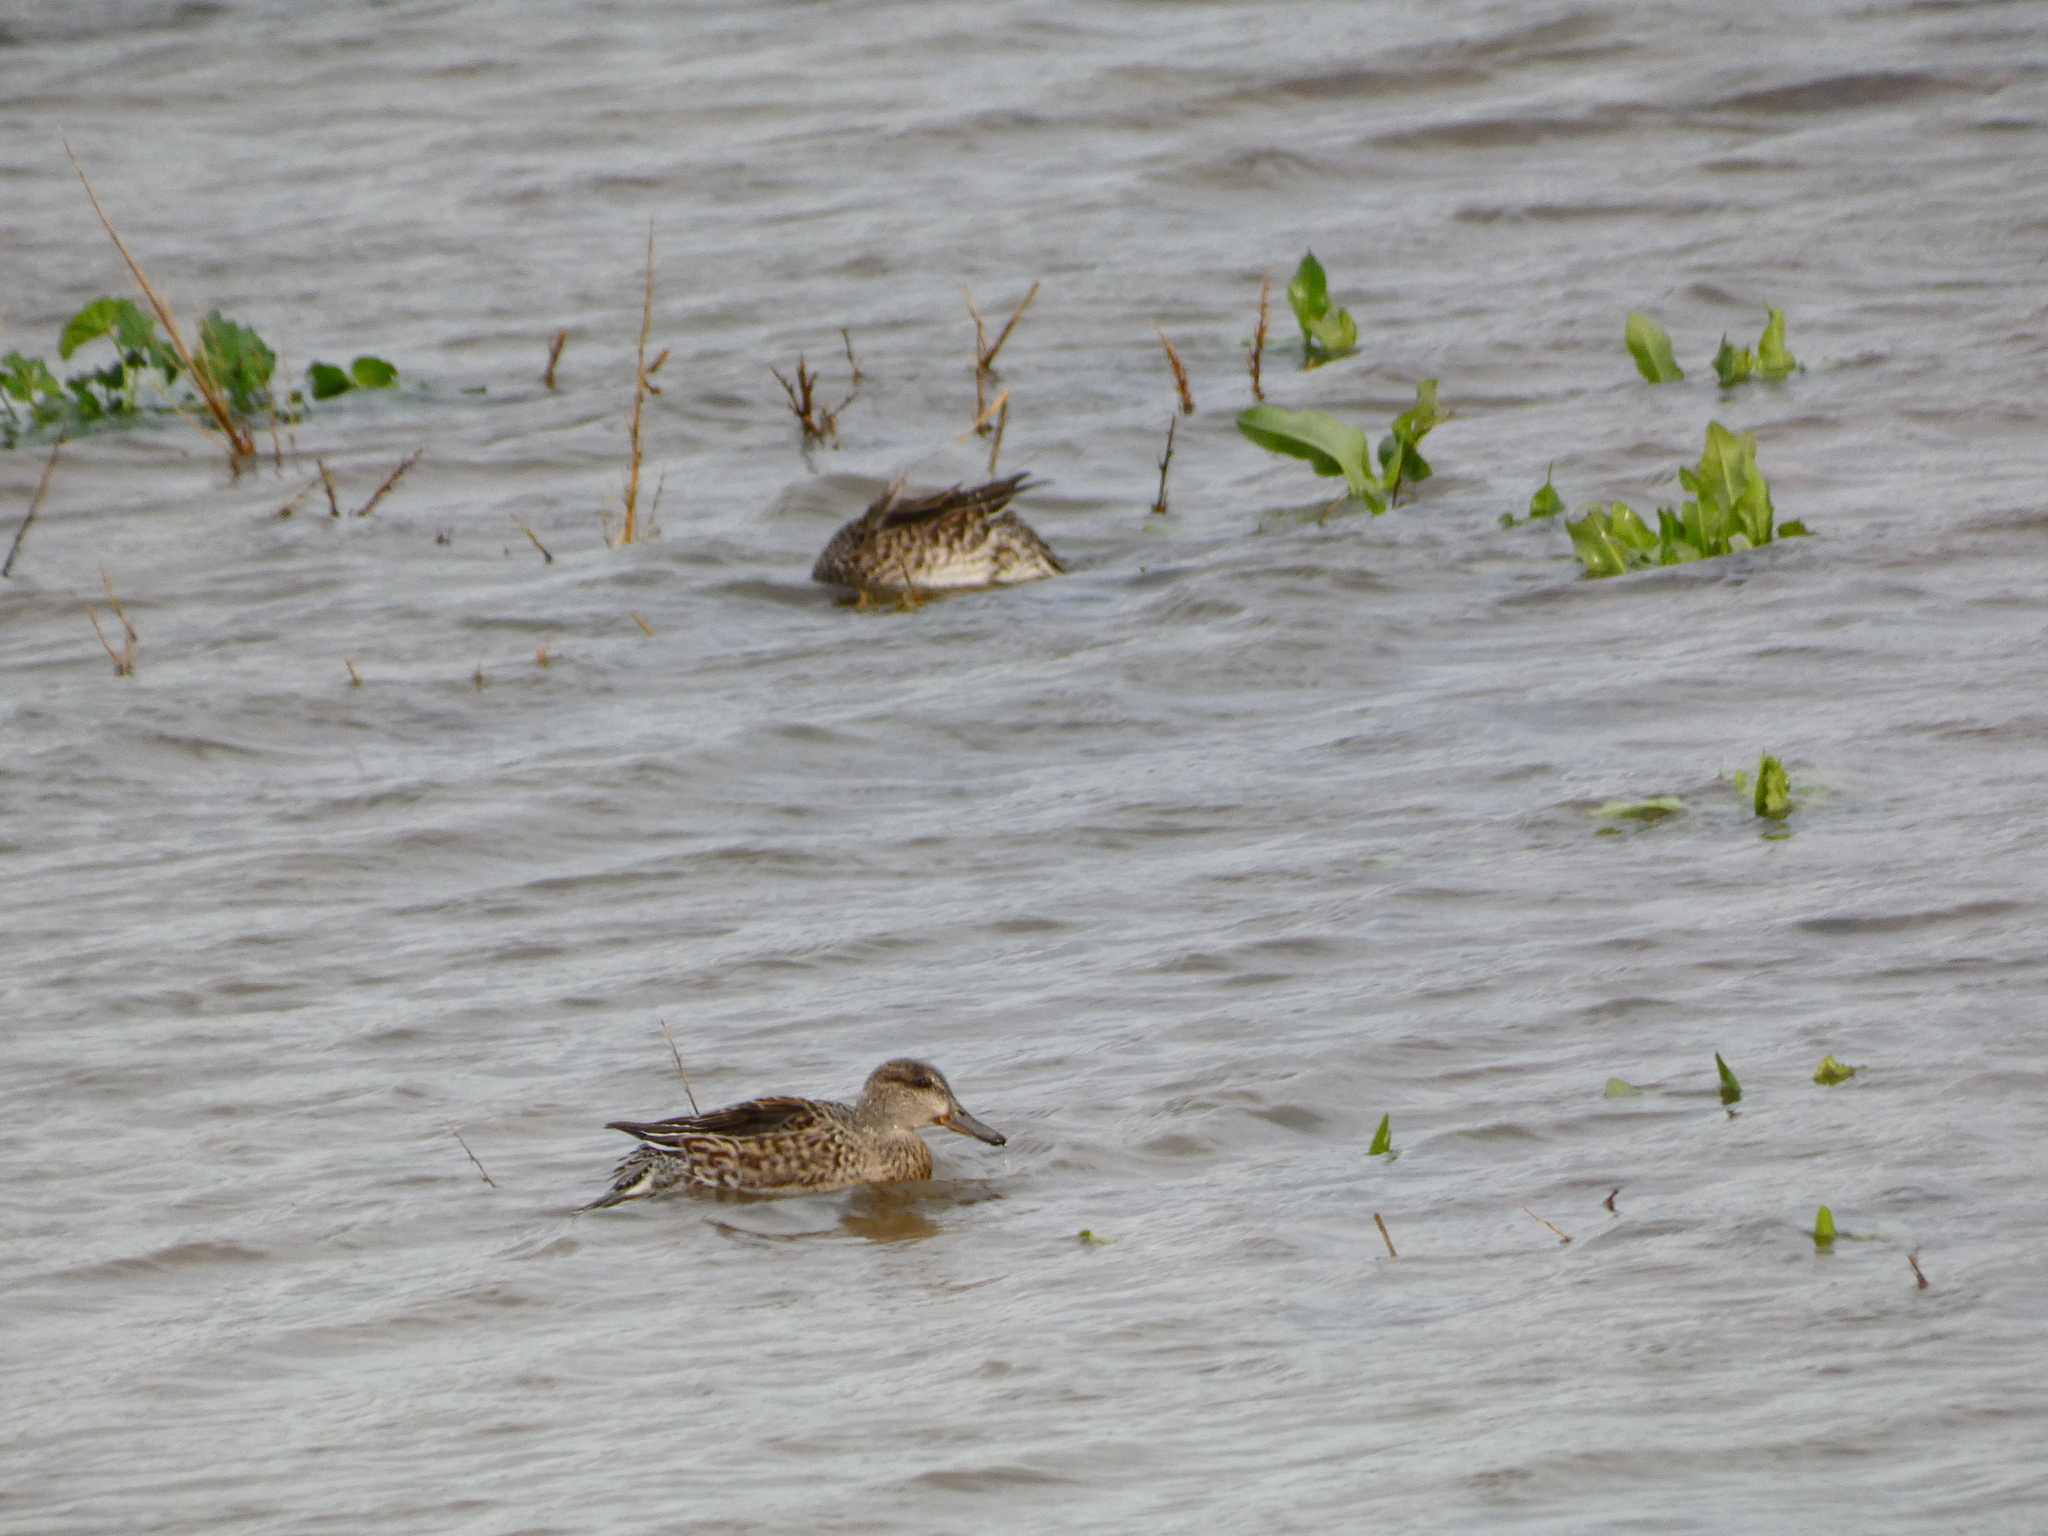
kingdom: Animalia
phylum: Chordata
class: Aves
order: Anseriformes
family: Anatidae
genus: Anas
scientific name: Anas crecca
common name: Eurasian teal
